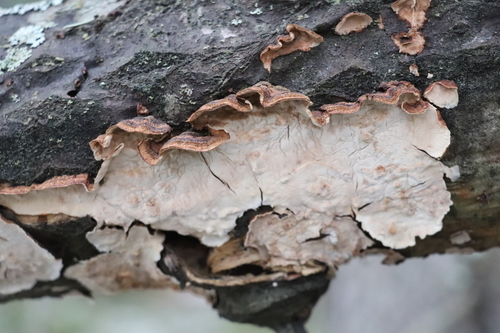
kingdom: Fungi
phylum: Basidiomycota
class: Agaricomycetes
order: Russulales
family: Hericiaceae
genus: Laxitextum
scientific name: Laxitextum bicolor
